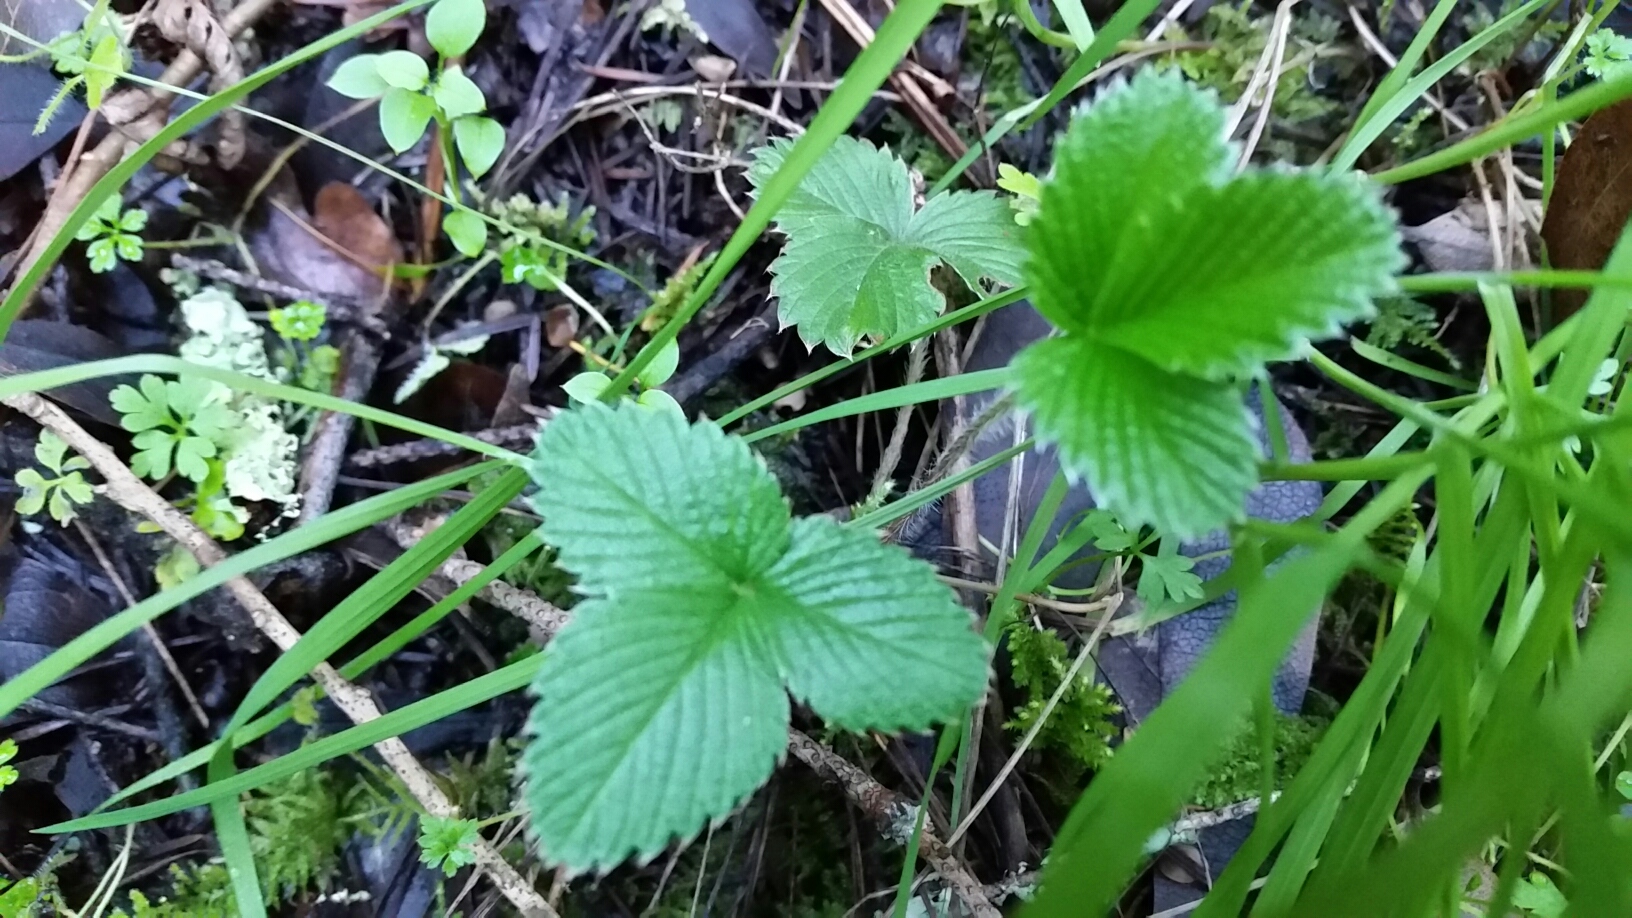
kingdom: Plantae
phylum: Tracheophyta
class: Magnoliopsida
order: Rosales
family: Rosaceae
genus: Fragaria
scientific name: Fragaria vesca
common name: Wild strawberry
